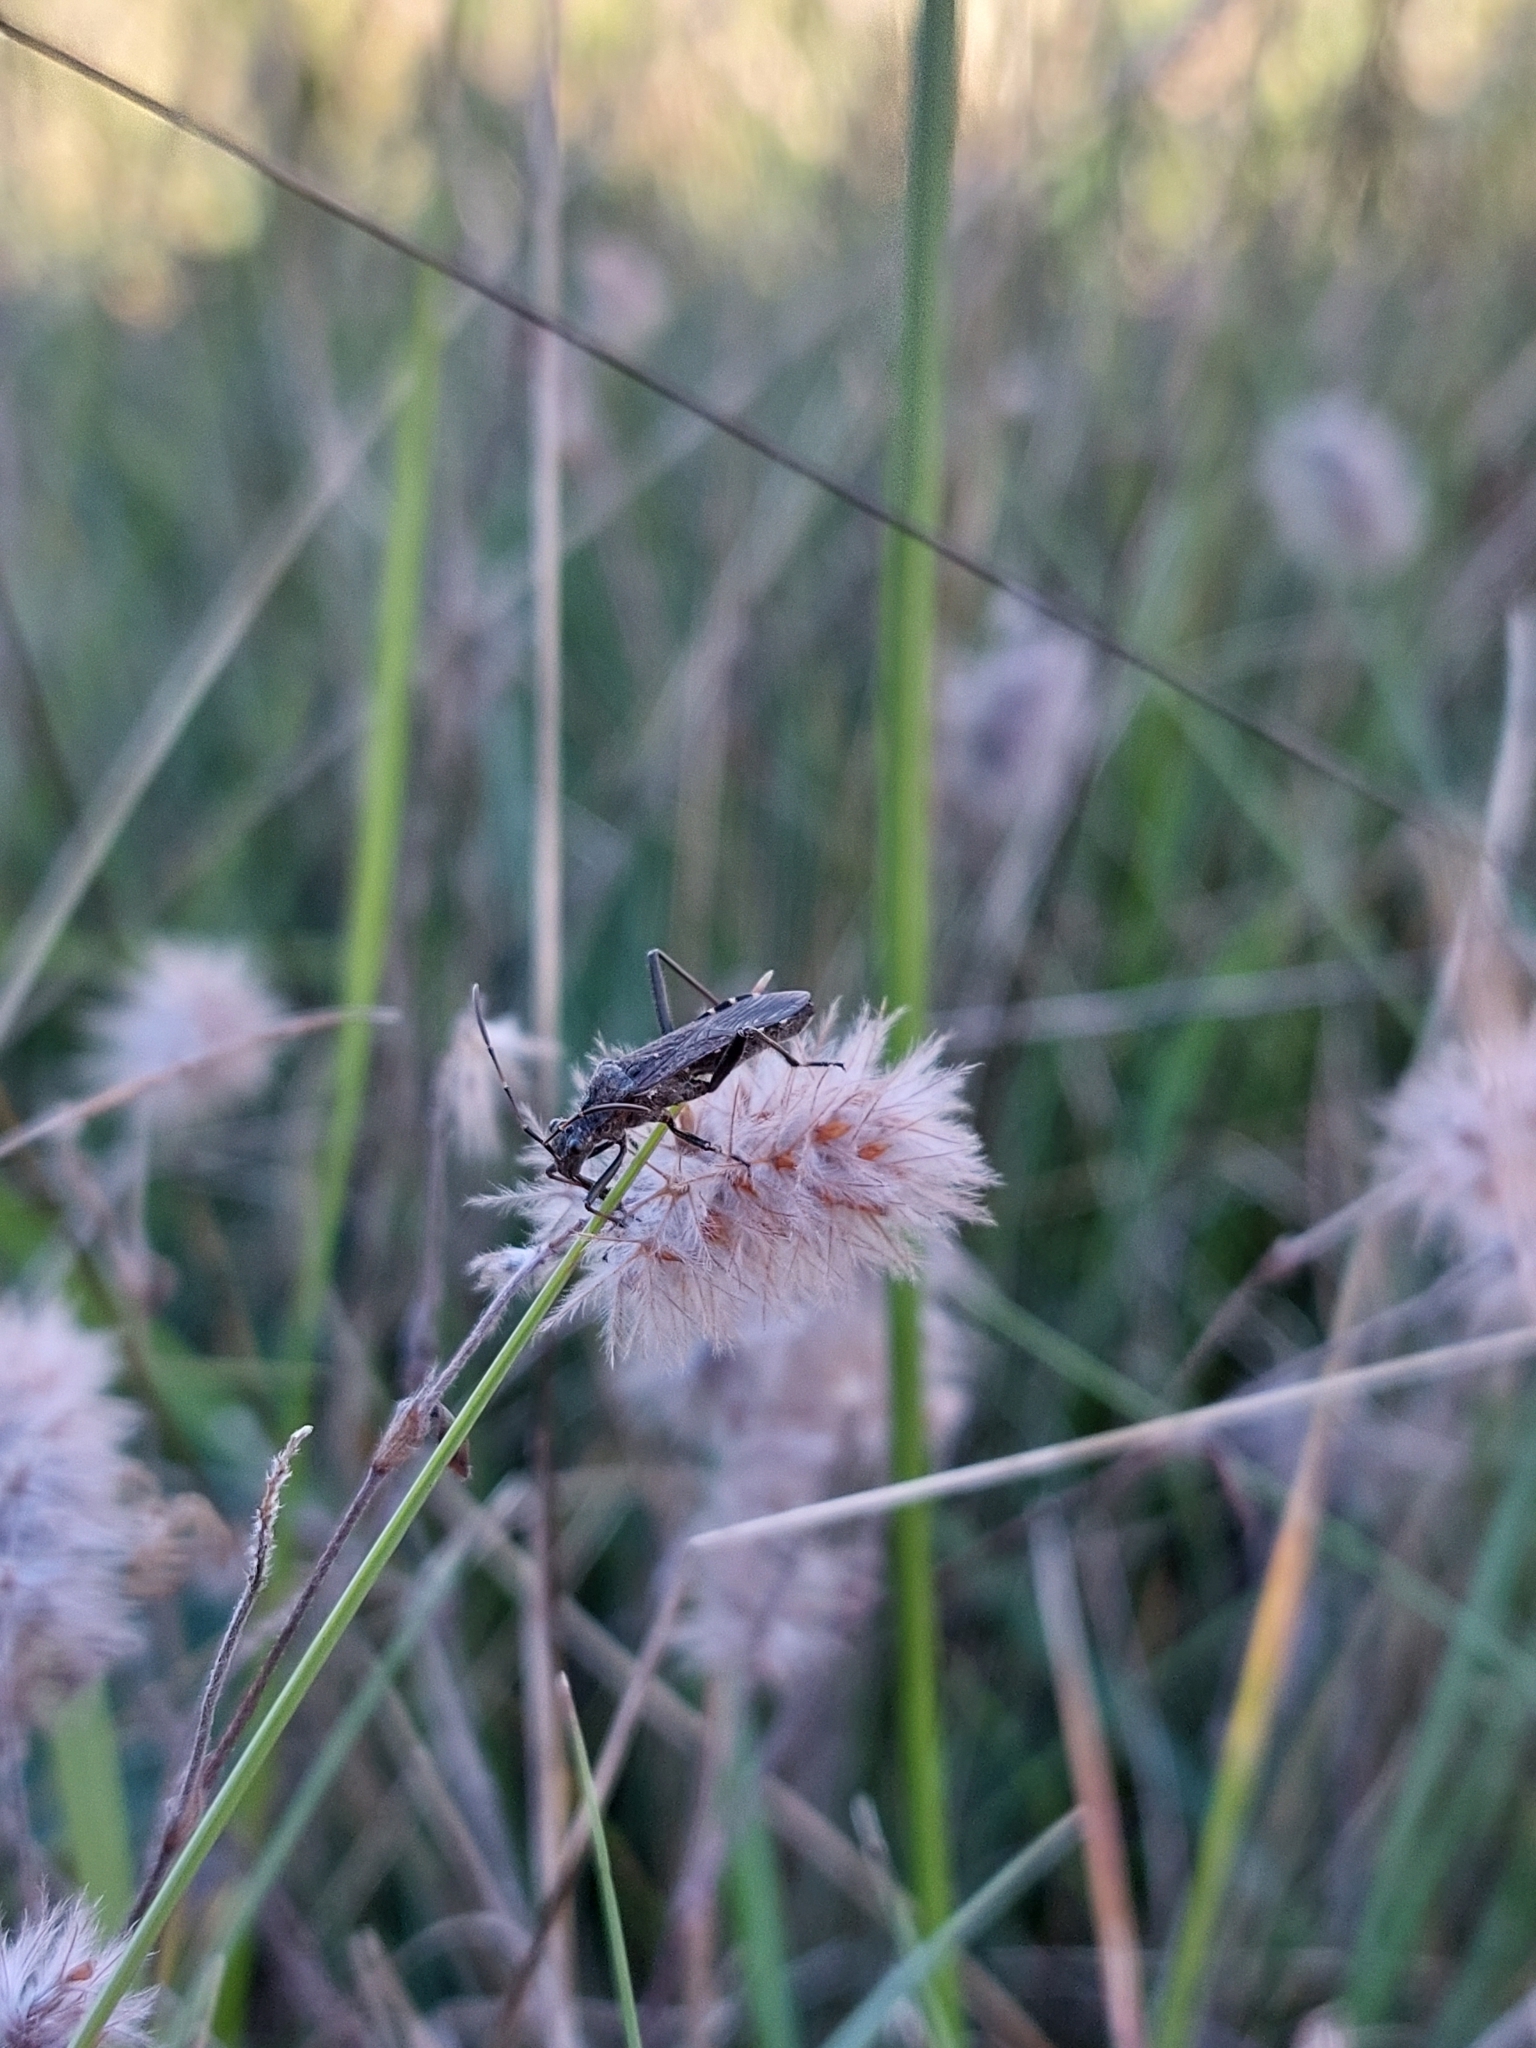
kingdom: Animalia
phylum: Arthropoda
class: Insecta
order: Hemiptera
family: Alydidae
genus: Alydus
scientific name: Alydus calcaratus
